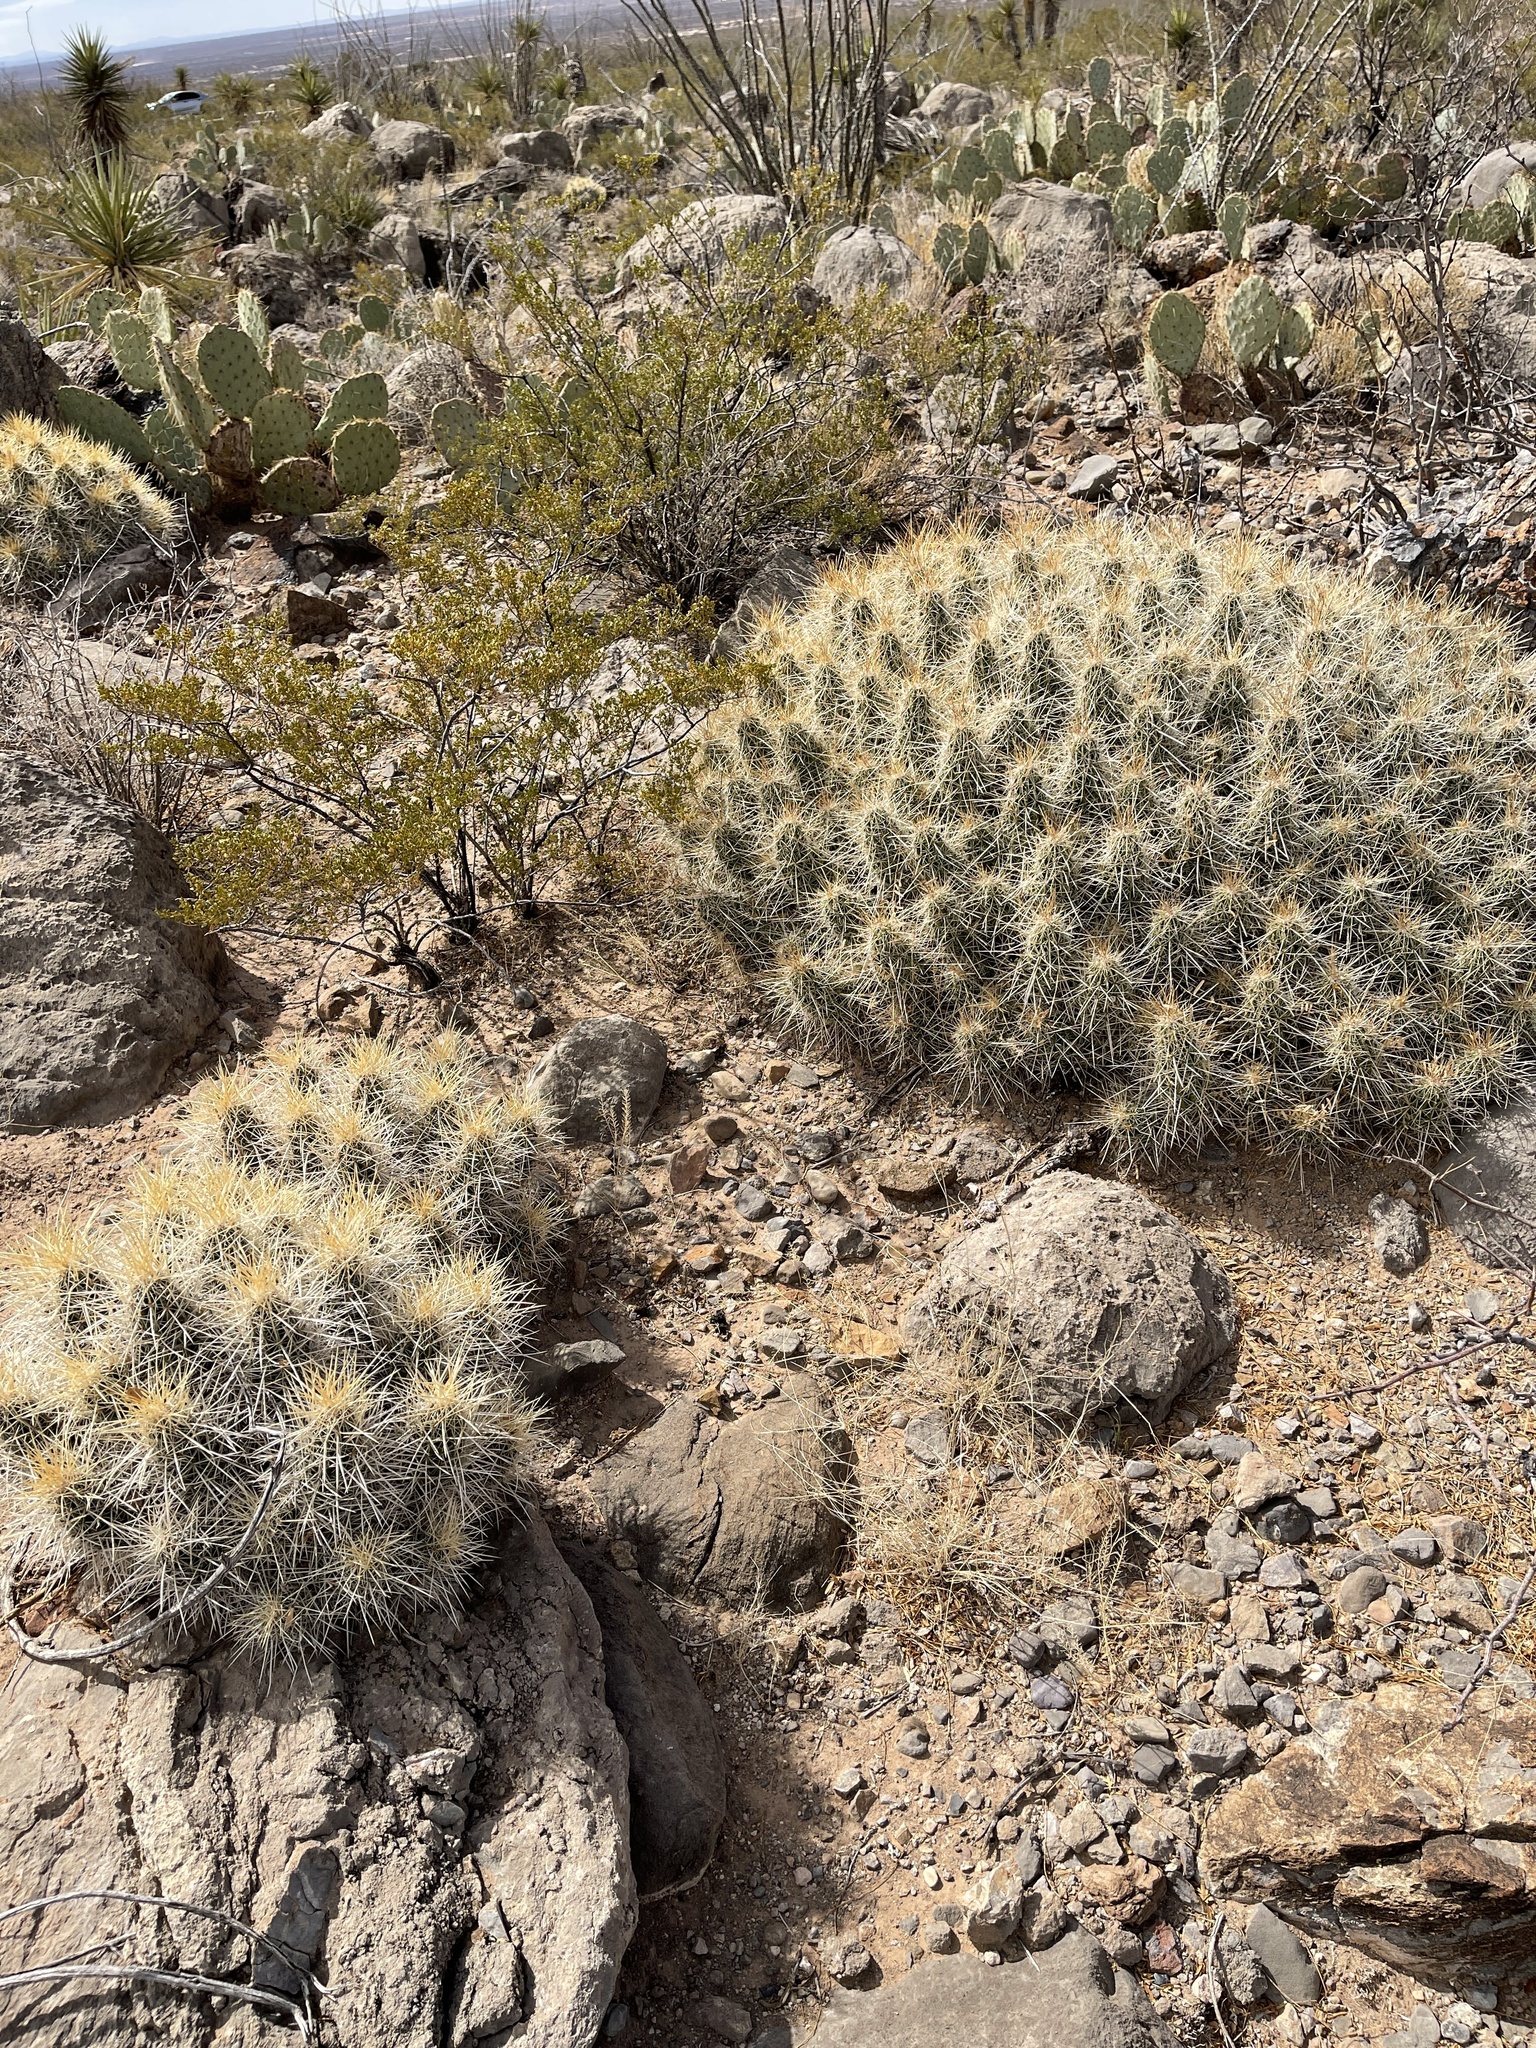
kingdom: Plantae
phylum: Tracheophyta
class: Magnoliopsida
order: Caryophyllales
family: Cactaceae
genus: Echinocereus
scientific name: Echinocereus stramineus
